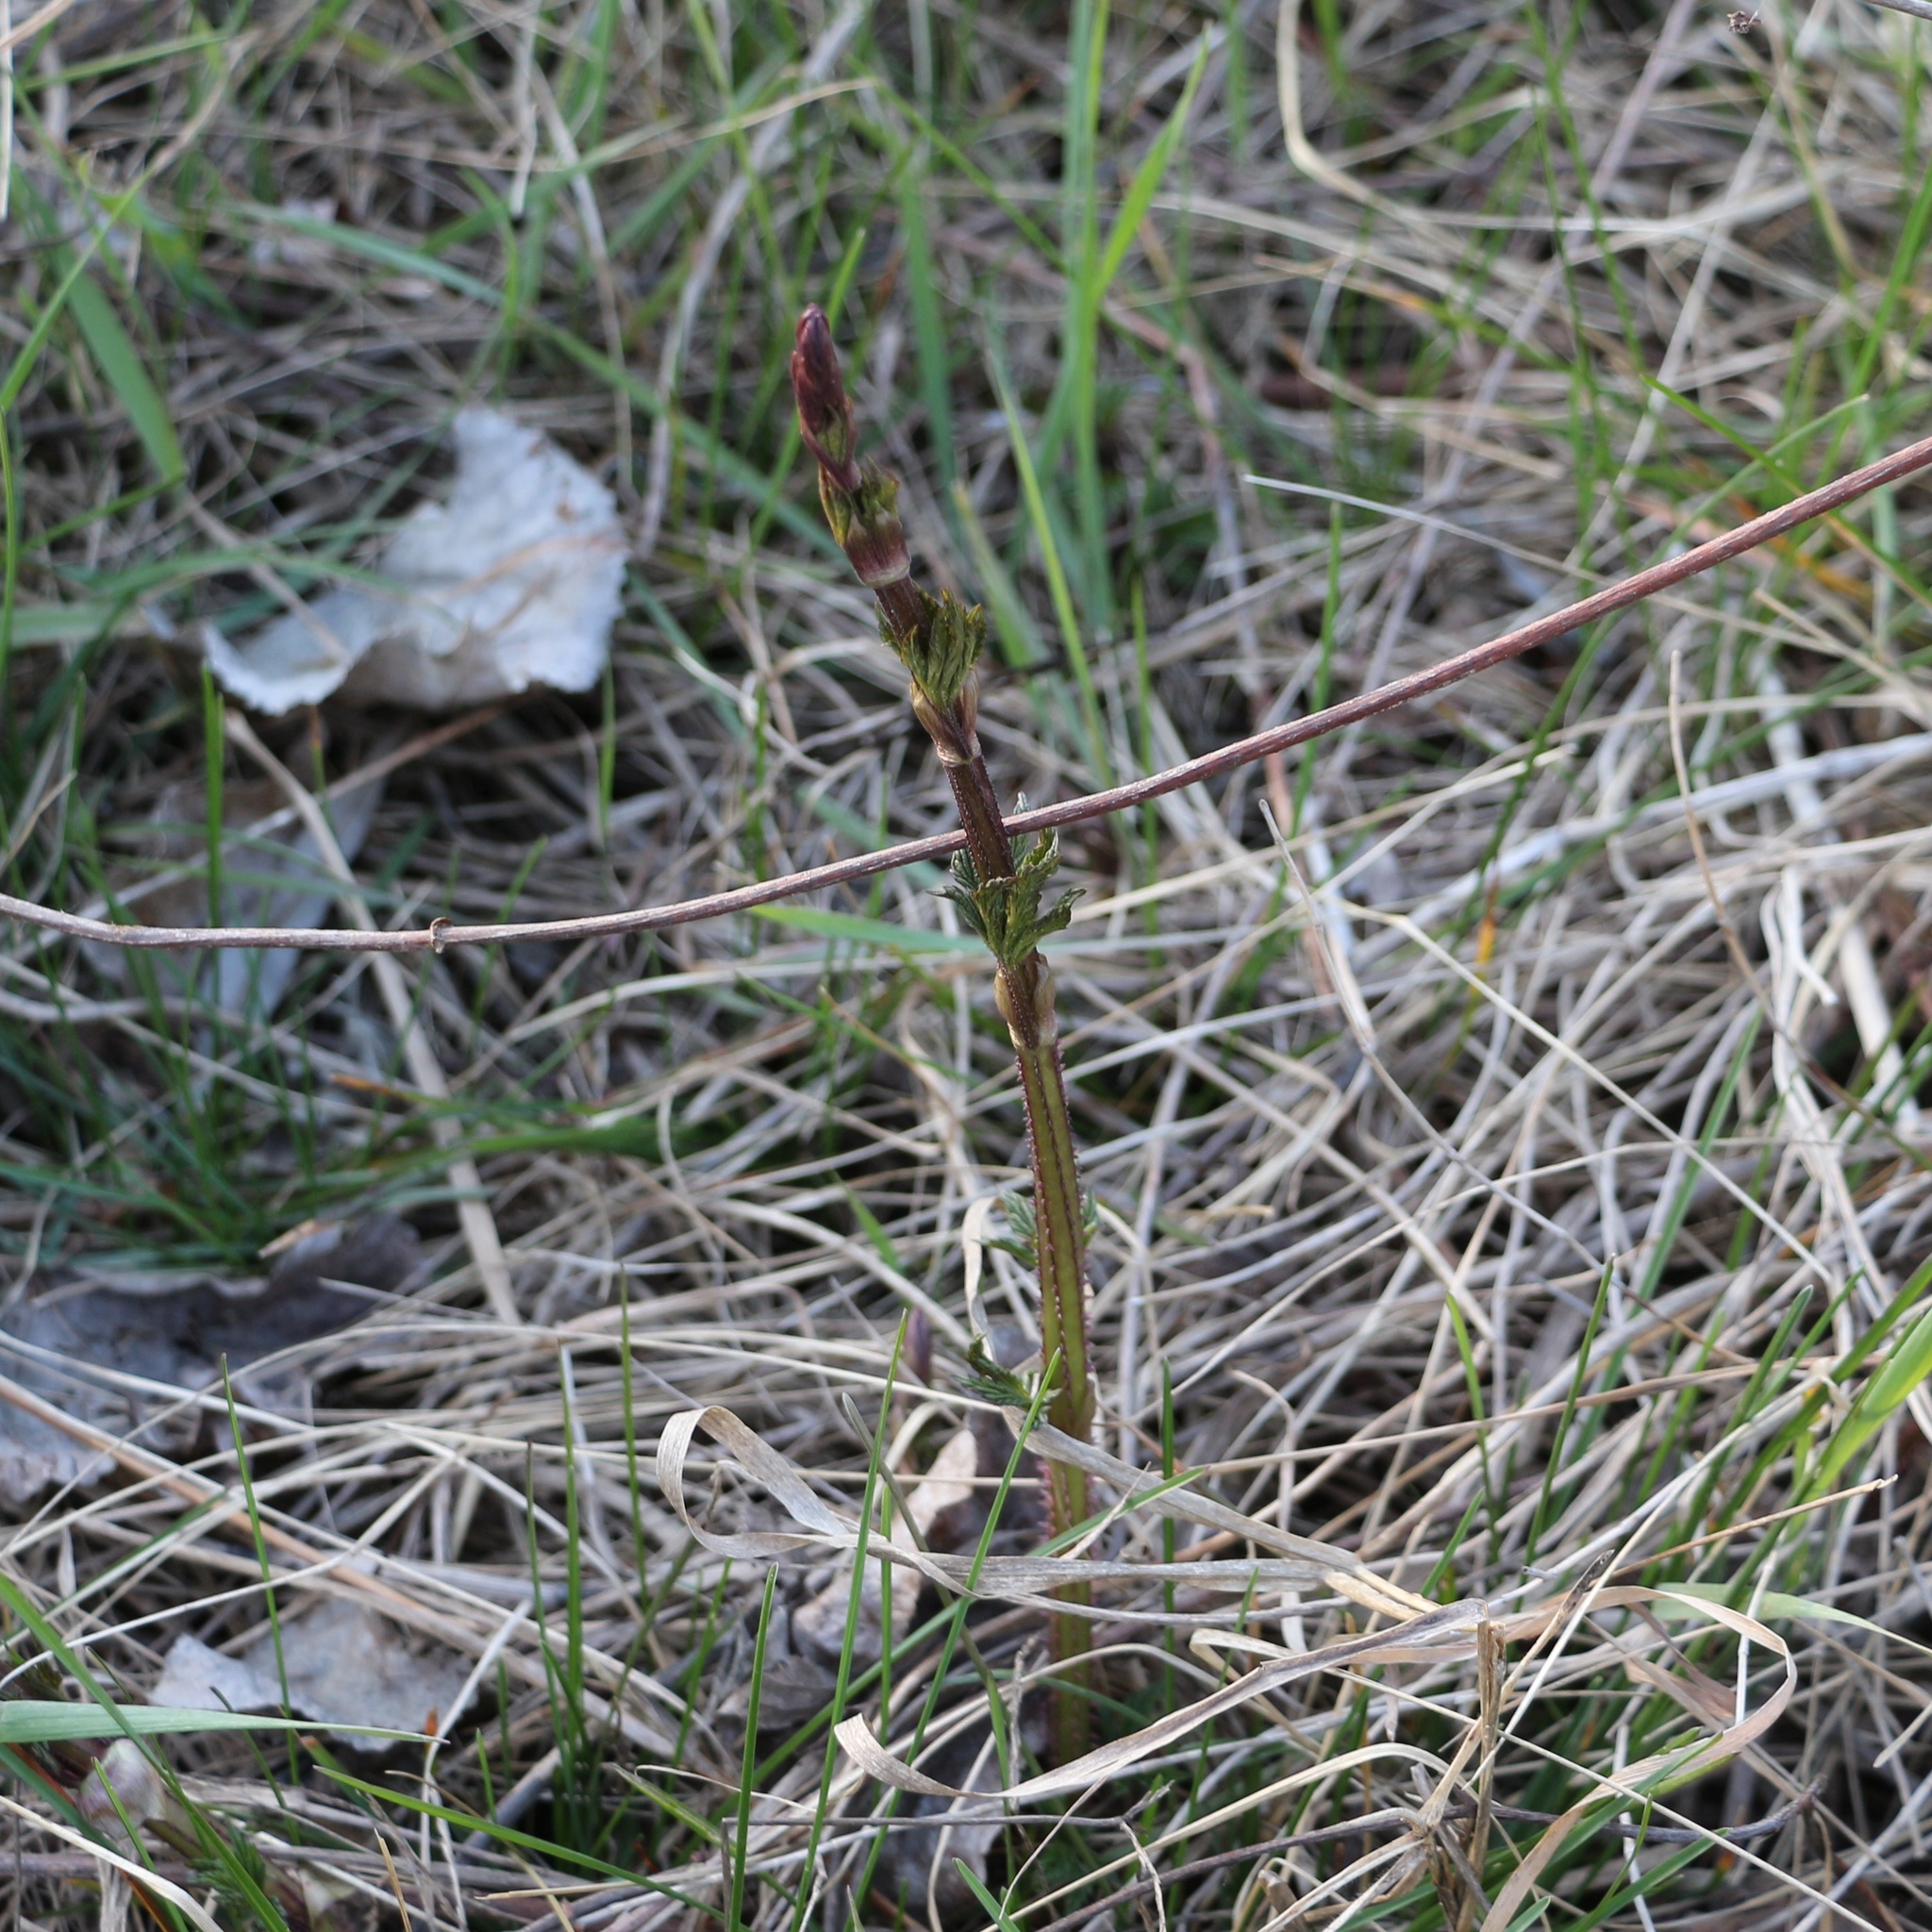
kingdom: Plantae
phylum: Tracheophyta
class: Magnoliopsida
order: Rosales
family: Cannabaceae
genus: Humulus
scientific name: Humulus lupulus
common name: Hop
